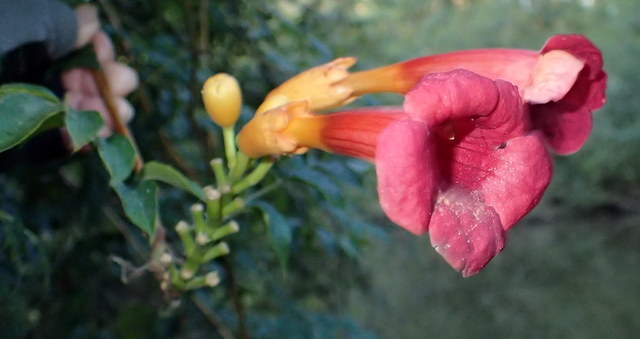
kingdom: Plantae
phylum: Tracheophyta
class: Magnoliopsida
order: Lamiales
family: Bignoniaceae
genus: Campsis
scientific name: Campsis radicans
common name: Trumpet-creeper
